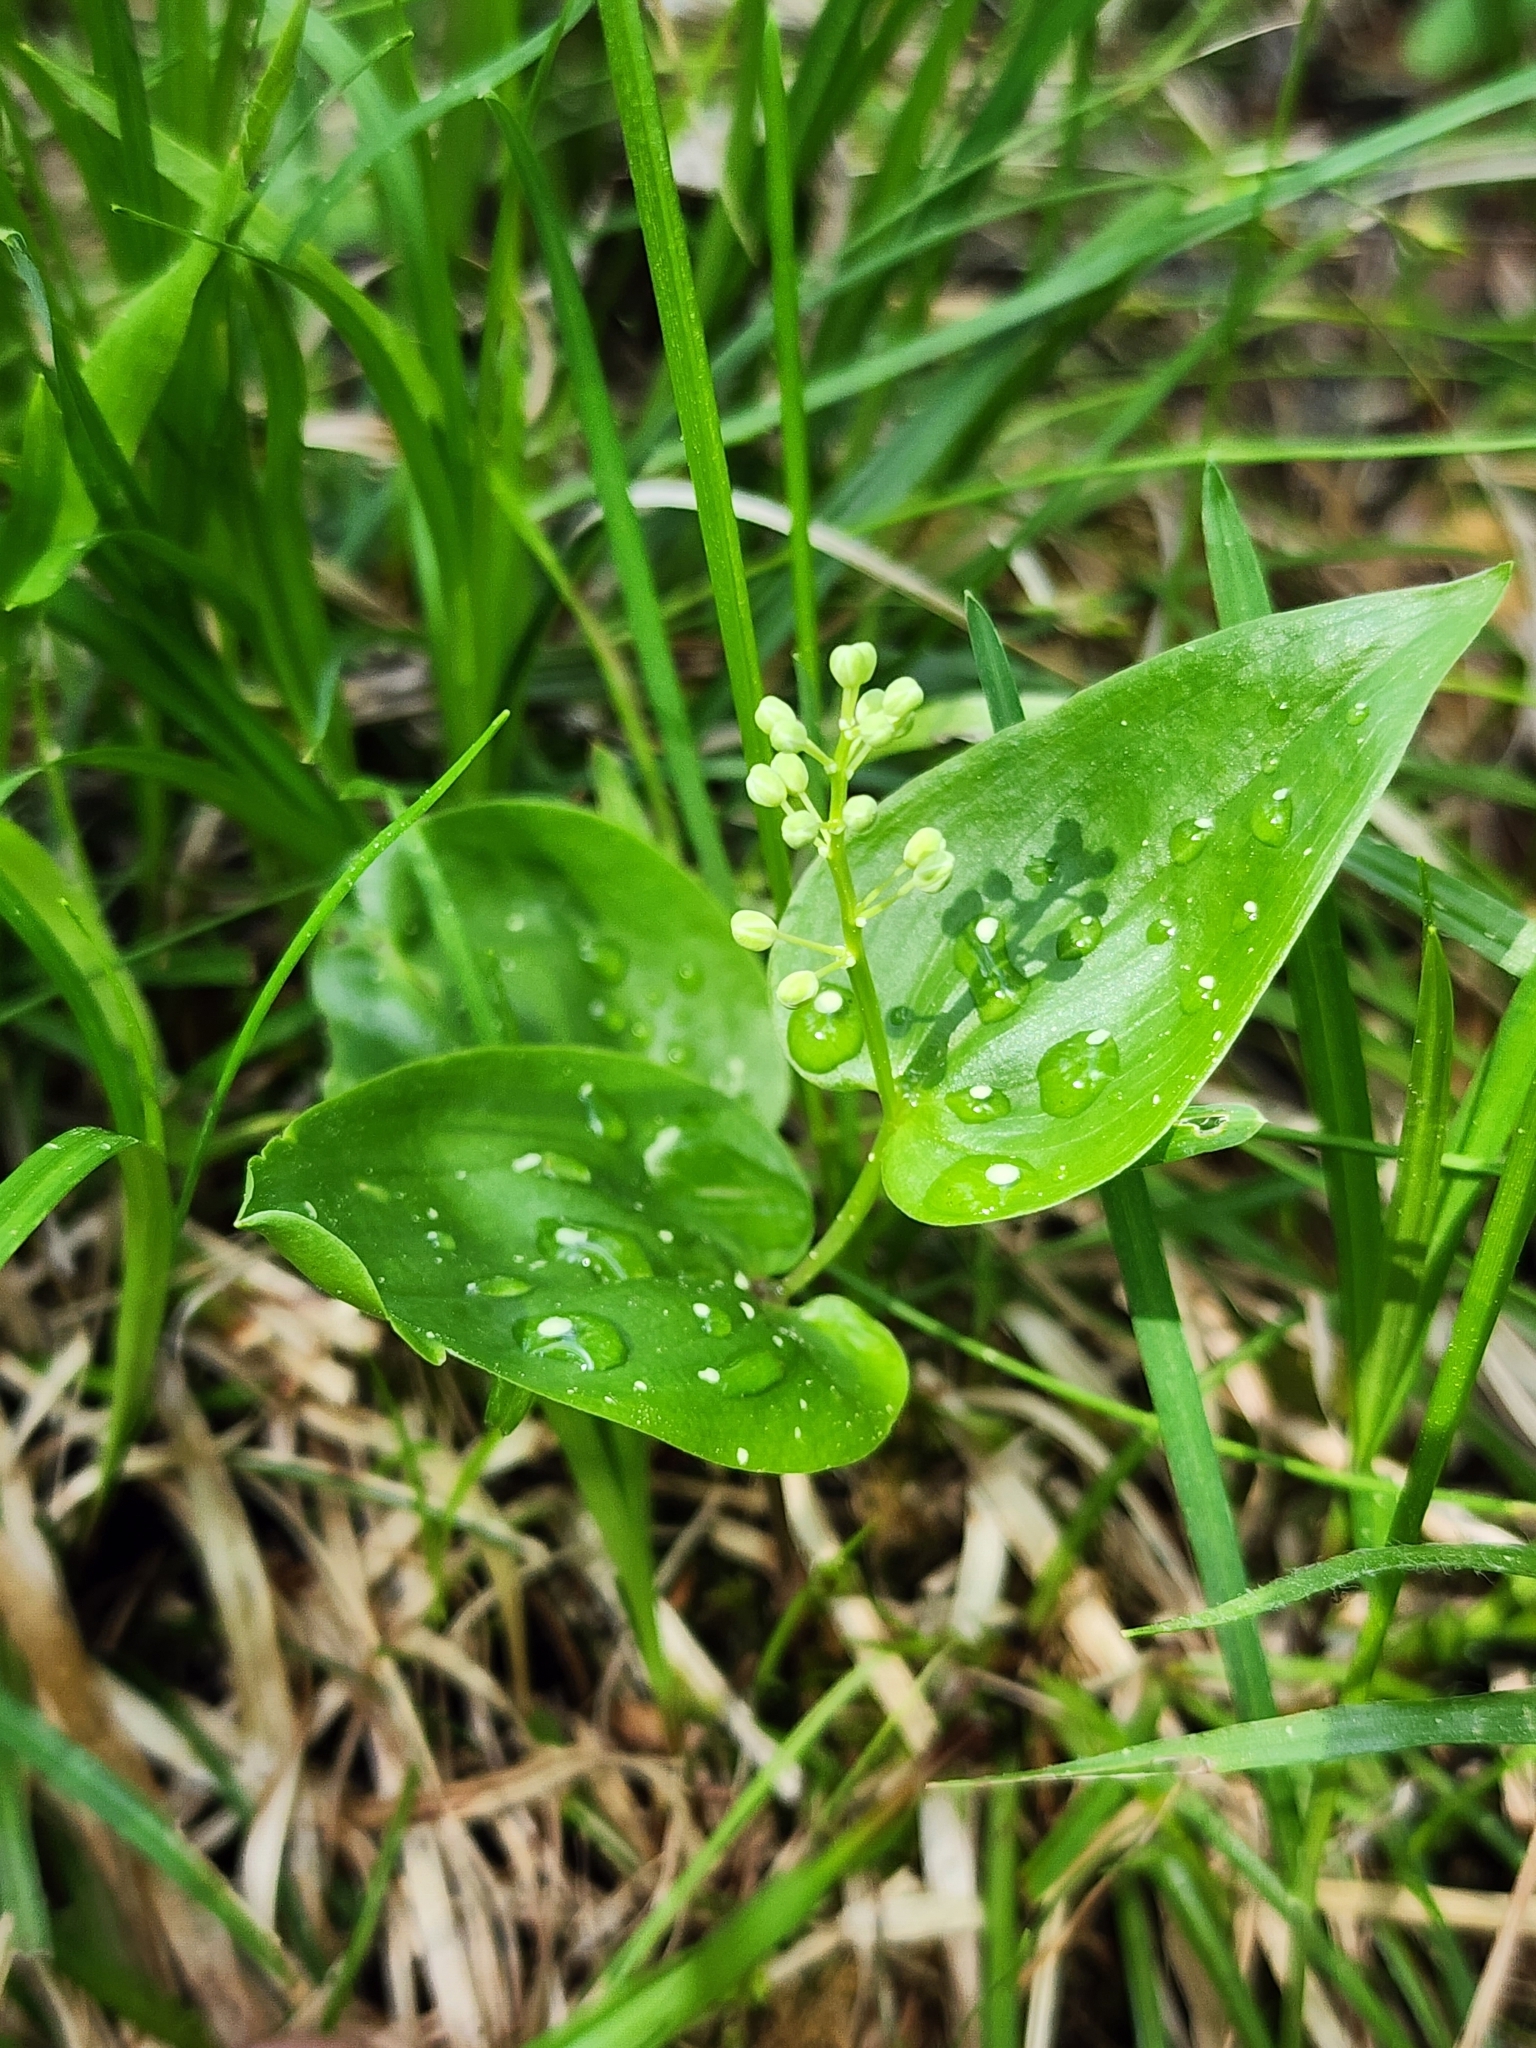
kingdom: Plantae
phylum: Tracheophyta
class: Liliopsida
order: Asparagales
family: Asparagaceae
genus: Maianthemum
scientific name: Maianthemum canadense
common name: False lily-of-the-valley
